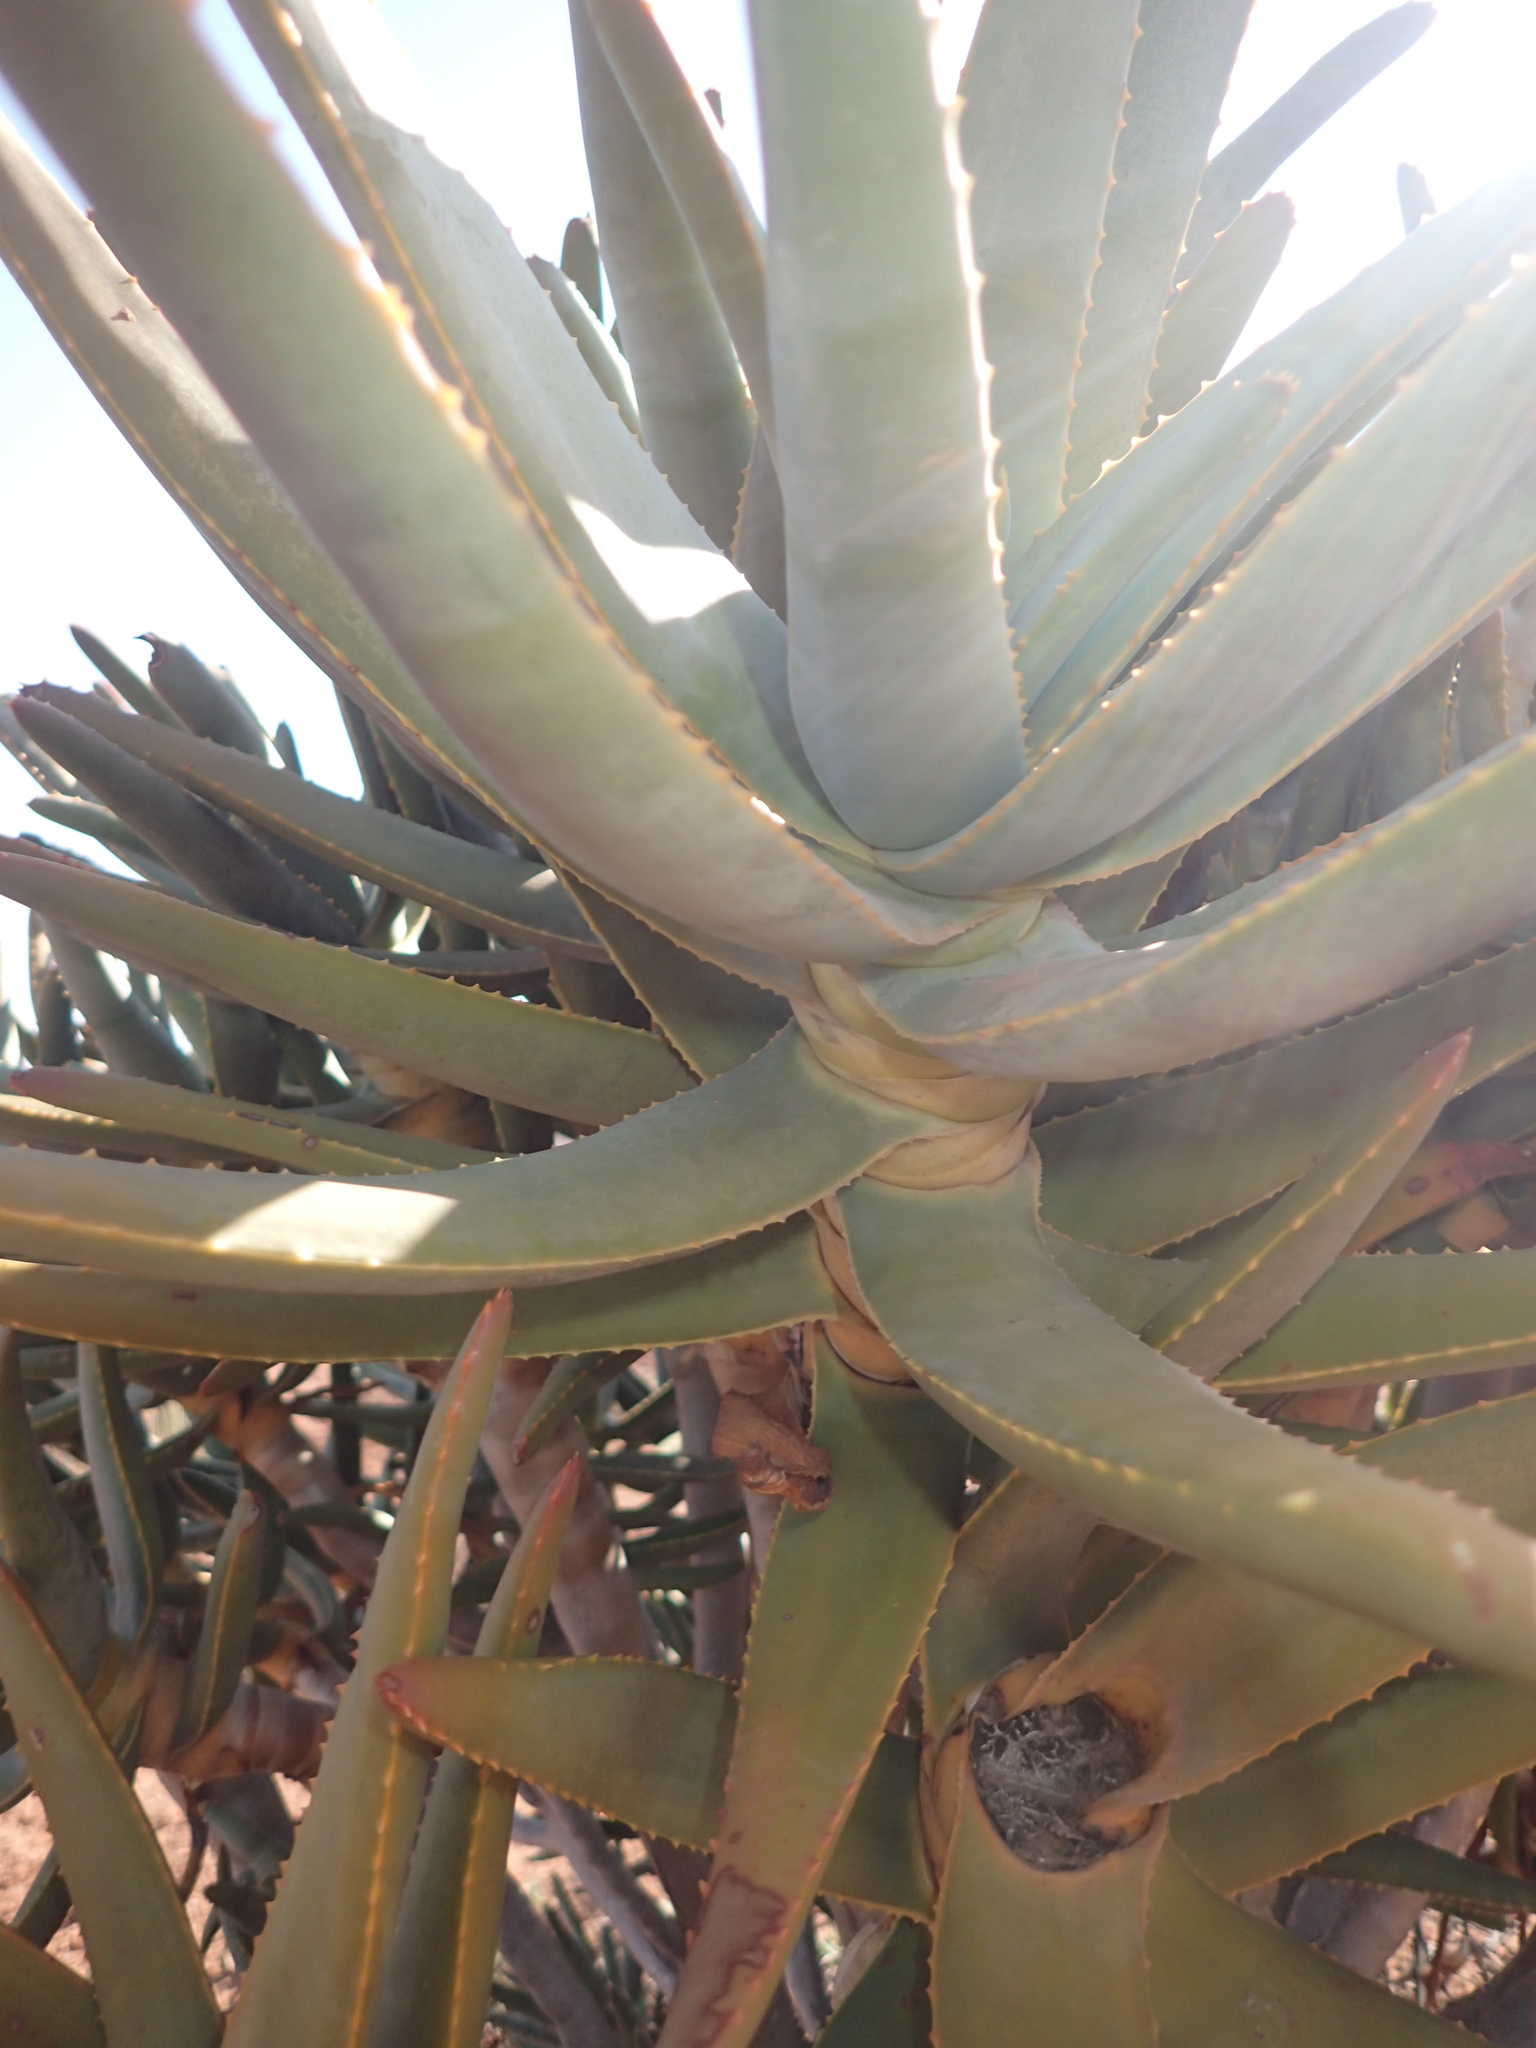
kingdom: Plantae
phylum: Tracheophyta
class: Liliopsida
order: Asparagales
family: Asphodelaceae
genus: Aloidendron
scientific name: Aloidendron ramosissimum
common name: Bush quiver tree
